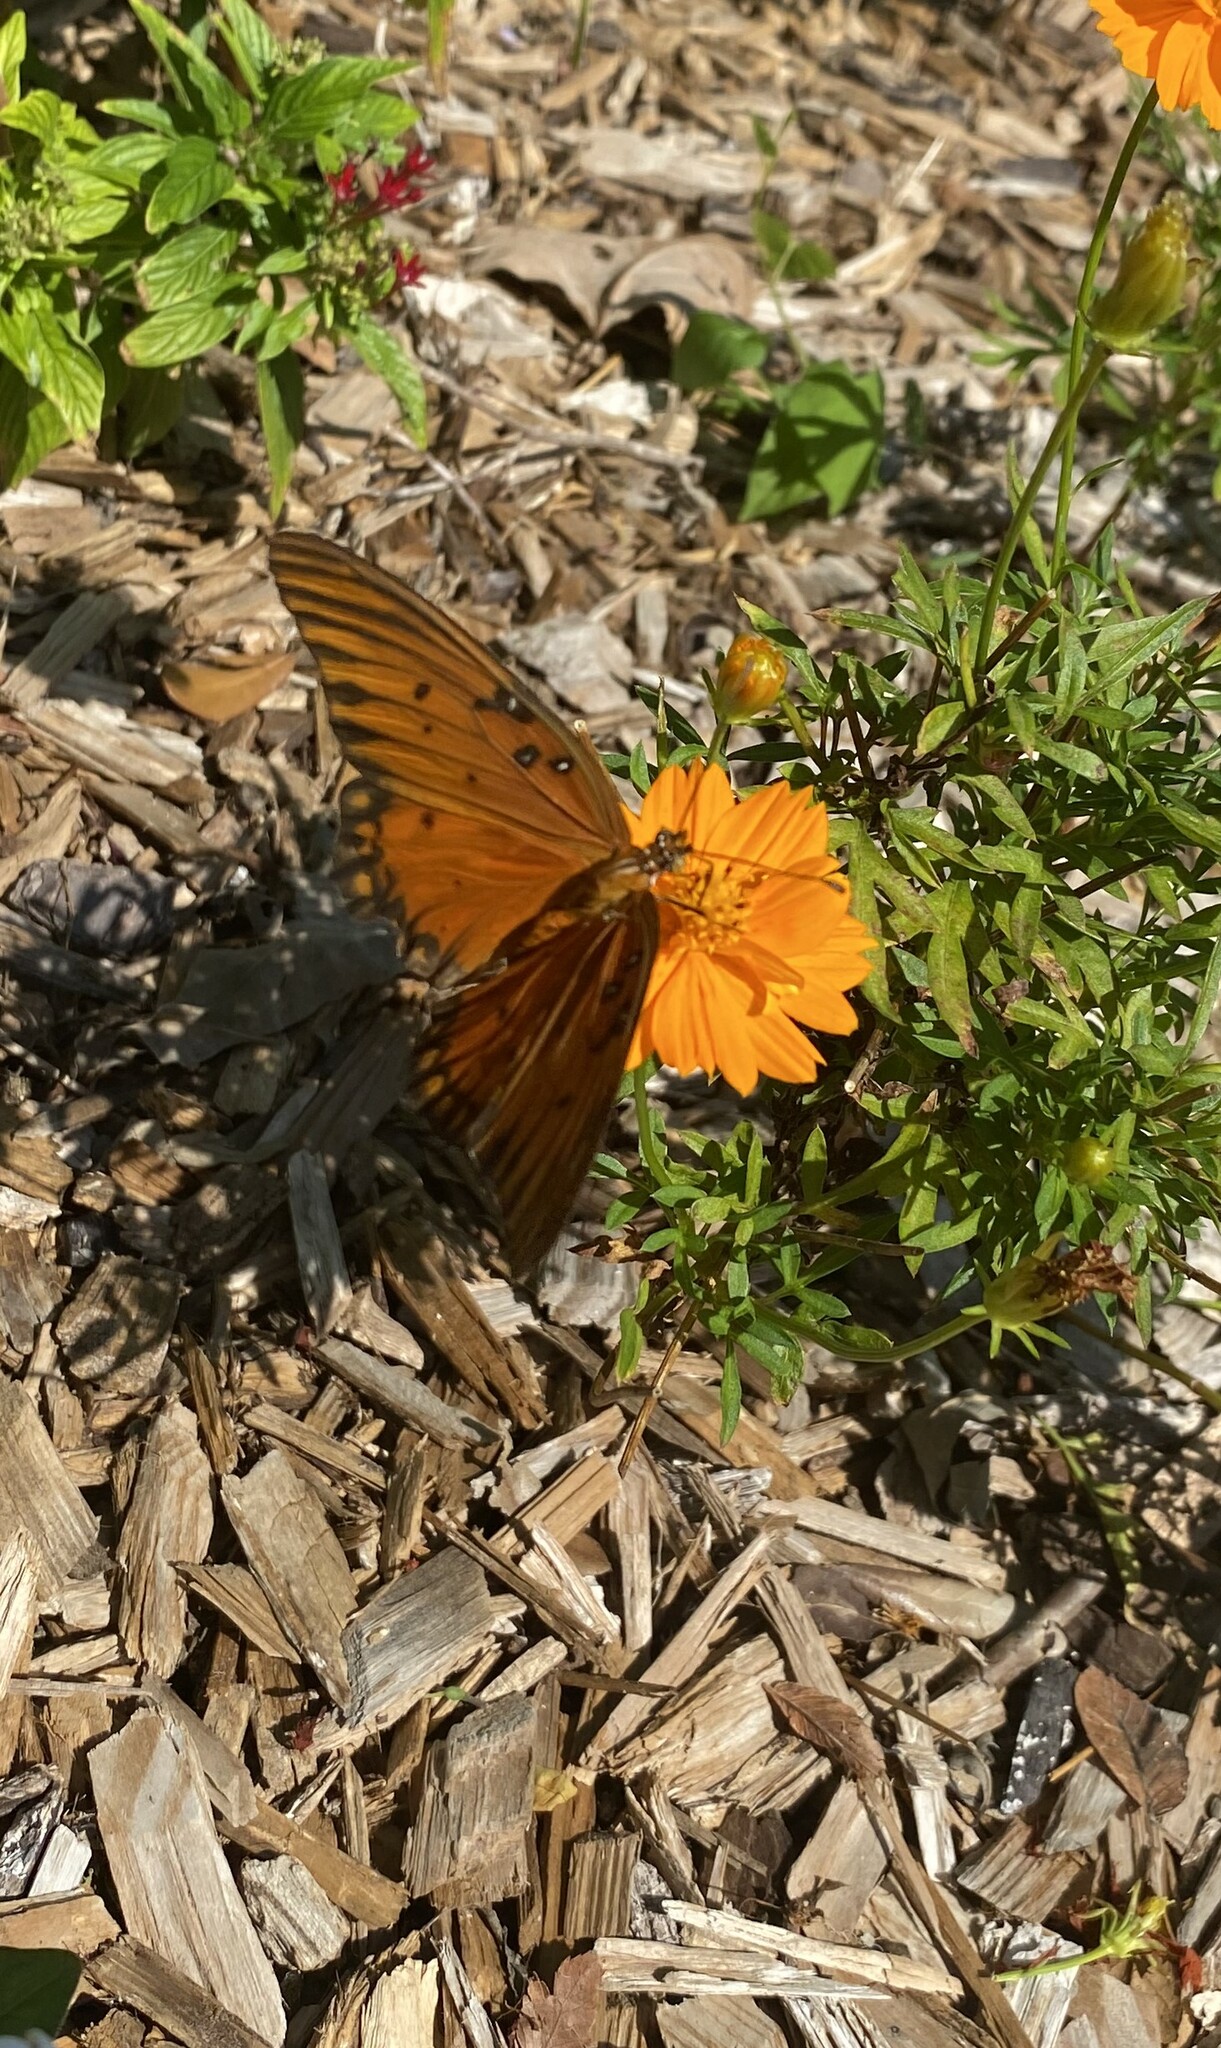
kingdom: Animalia
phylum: Arthropoda
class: Insecta
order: Lepidoptera
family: Nymphalidae
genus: Dione
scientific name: Dione vanillae
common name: Gulf fritillary
